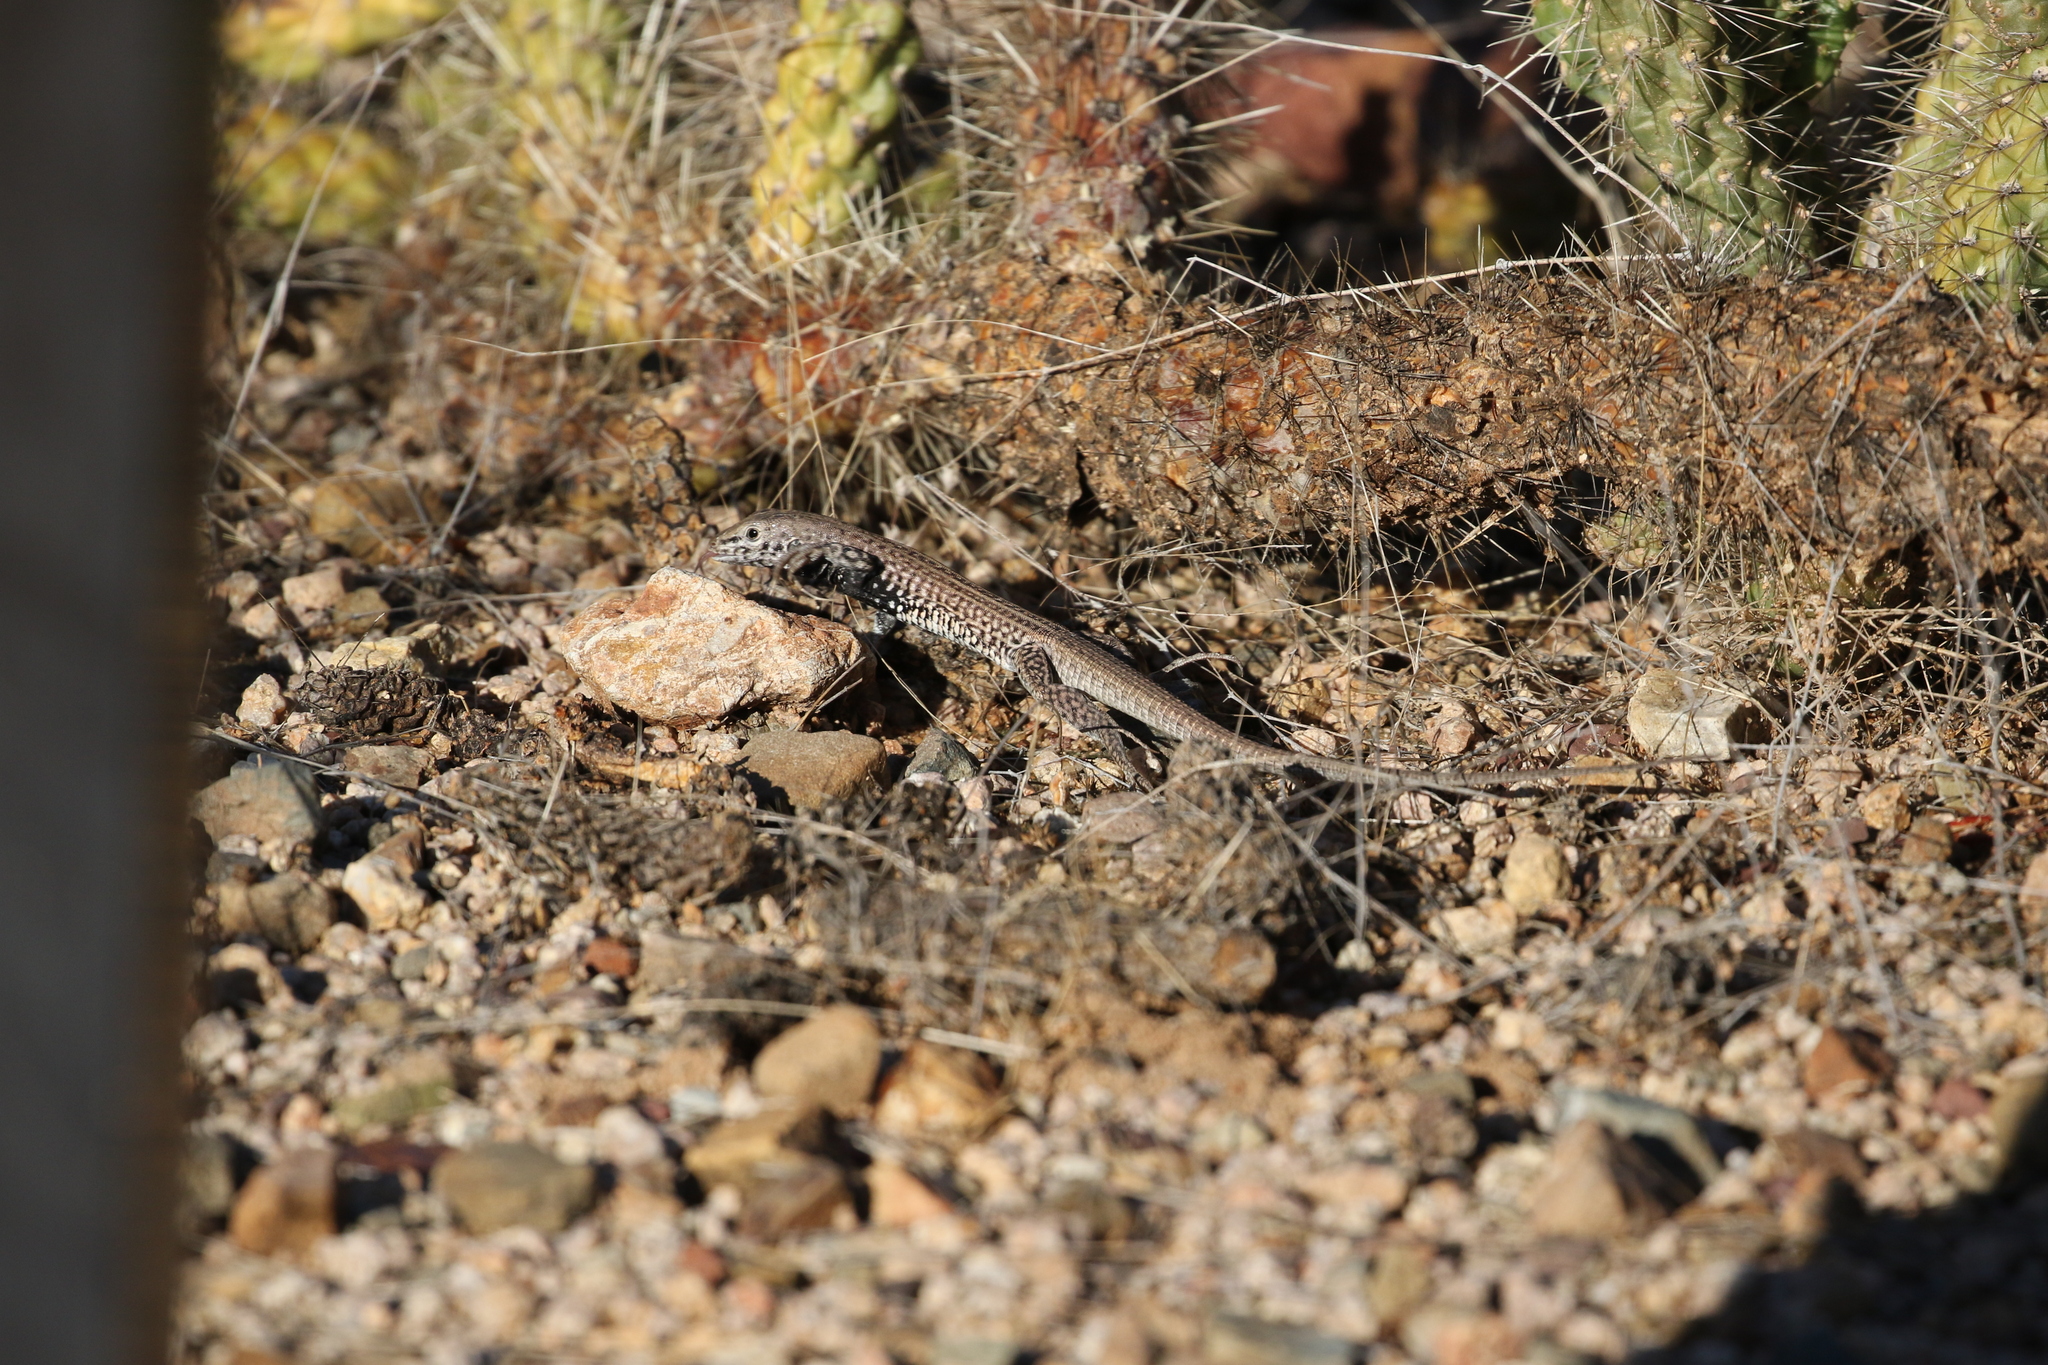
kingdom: Animalia
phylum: Chordata
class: Squamata
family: Teiidae
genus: Aspidoscelis
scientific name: Aspidoscelis tigris
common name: Tiger whiptail
